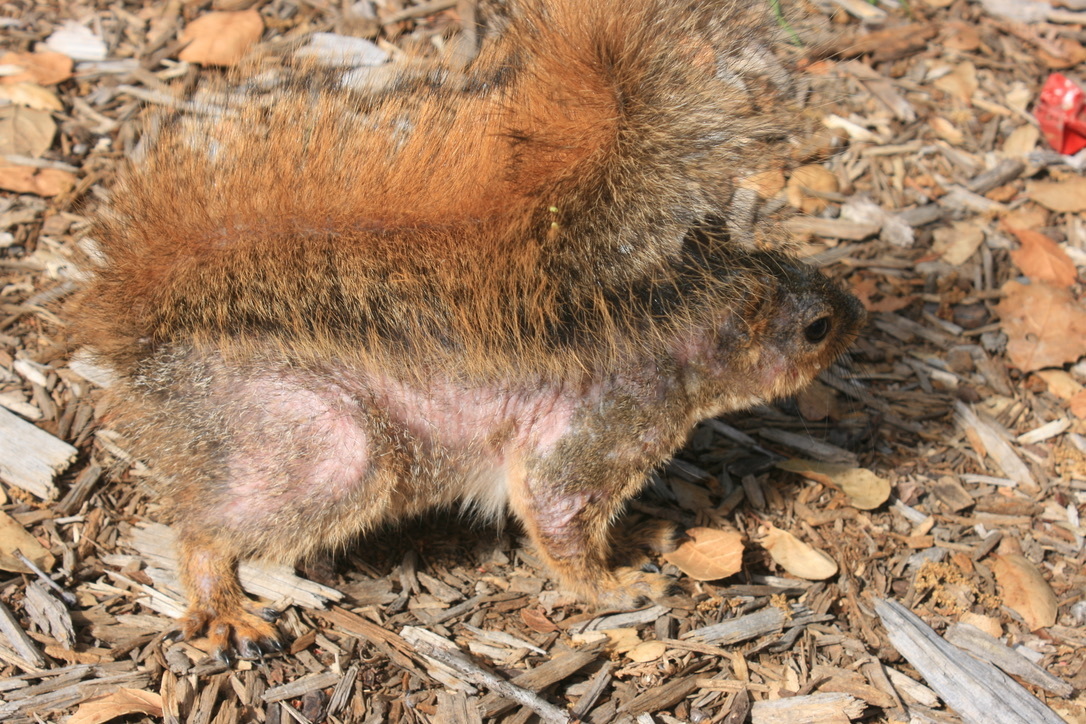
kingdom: Animalia
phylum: Chordata
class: Mammalia
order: Rodentia
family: Sciuridae
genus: Sciurus
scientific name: Sciurus niger
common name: Fox squirrel
